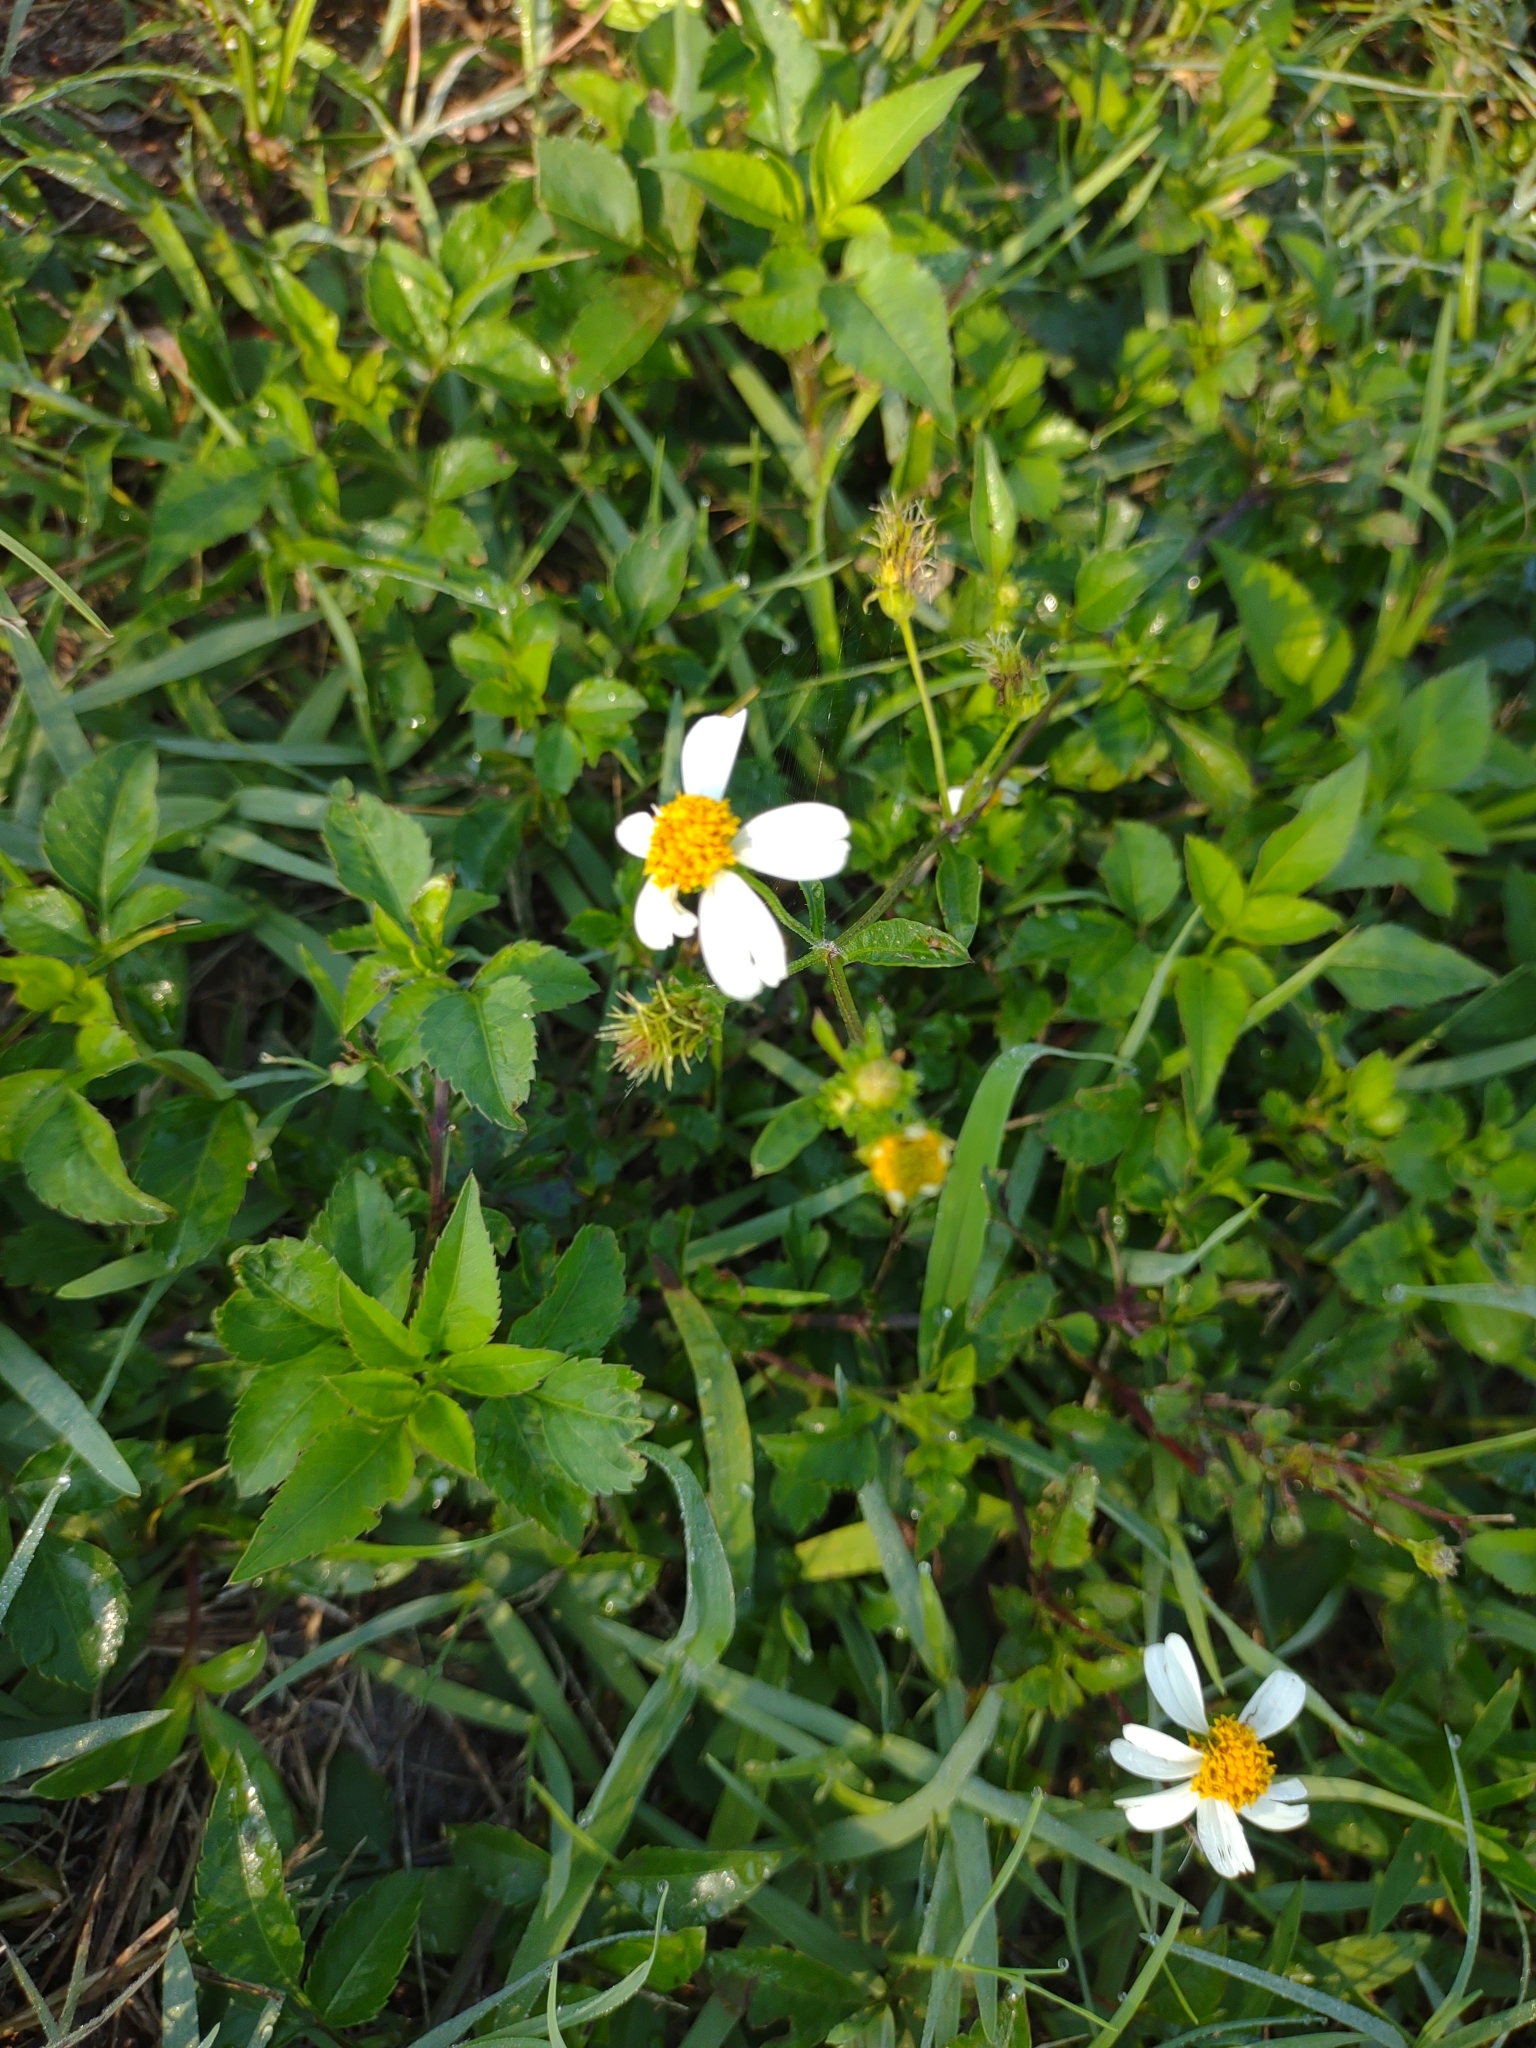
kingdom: Plantae
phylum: Tracheophyta
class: Magnoliopsida
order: Asterales
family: Asteraceae
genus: Bidens
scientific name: Bidens alba
